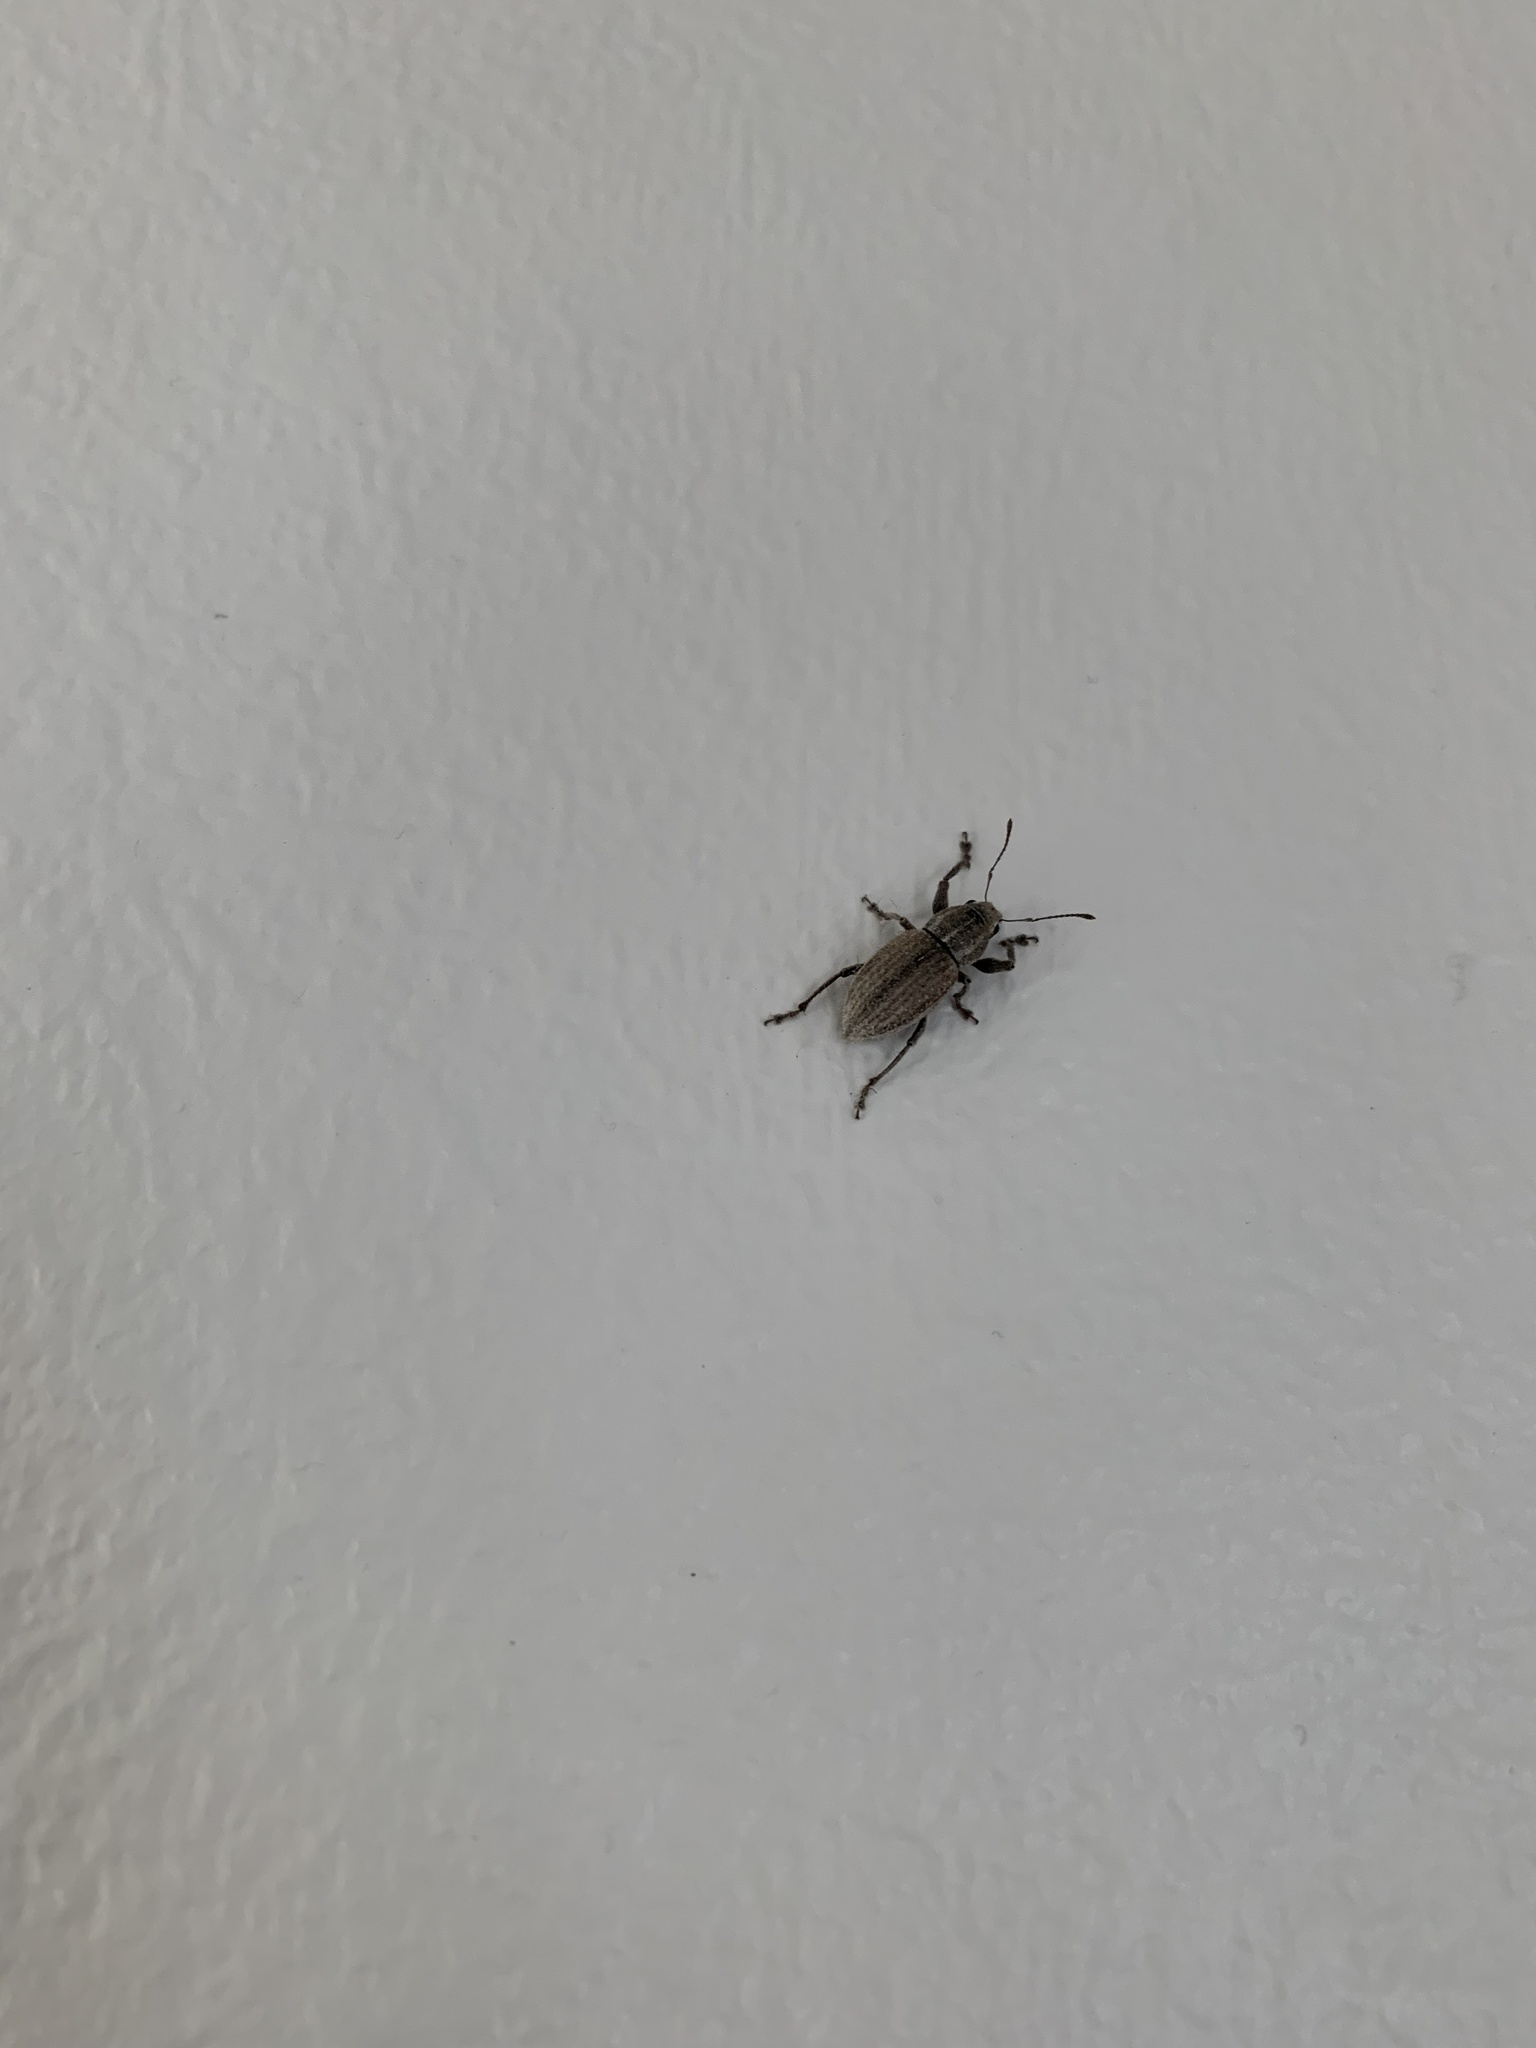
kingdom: Animalia
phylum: Arthropoda
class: Insecta
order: Coleoptera
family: Curculionidae
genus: Naupactus
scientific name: Naupactus leucoloma
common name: Whitefringed beetle
